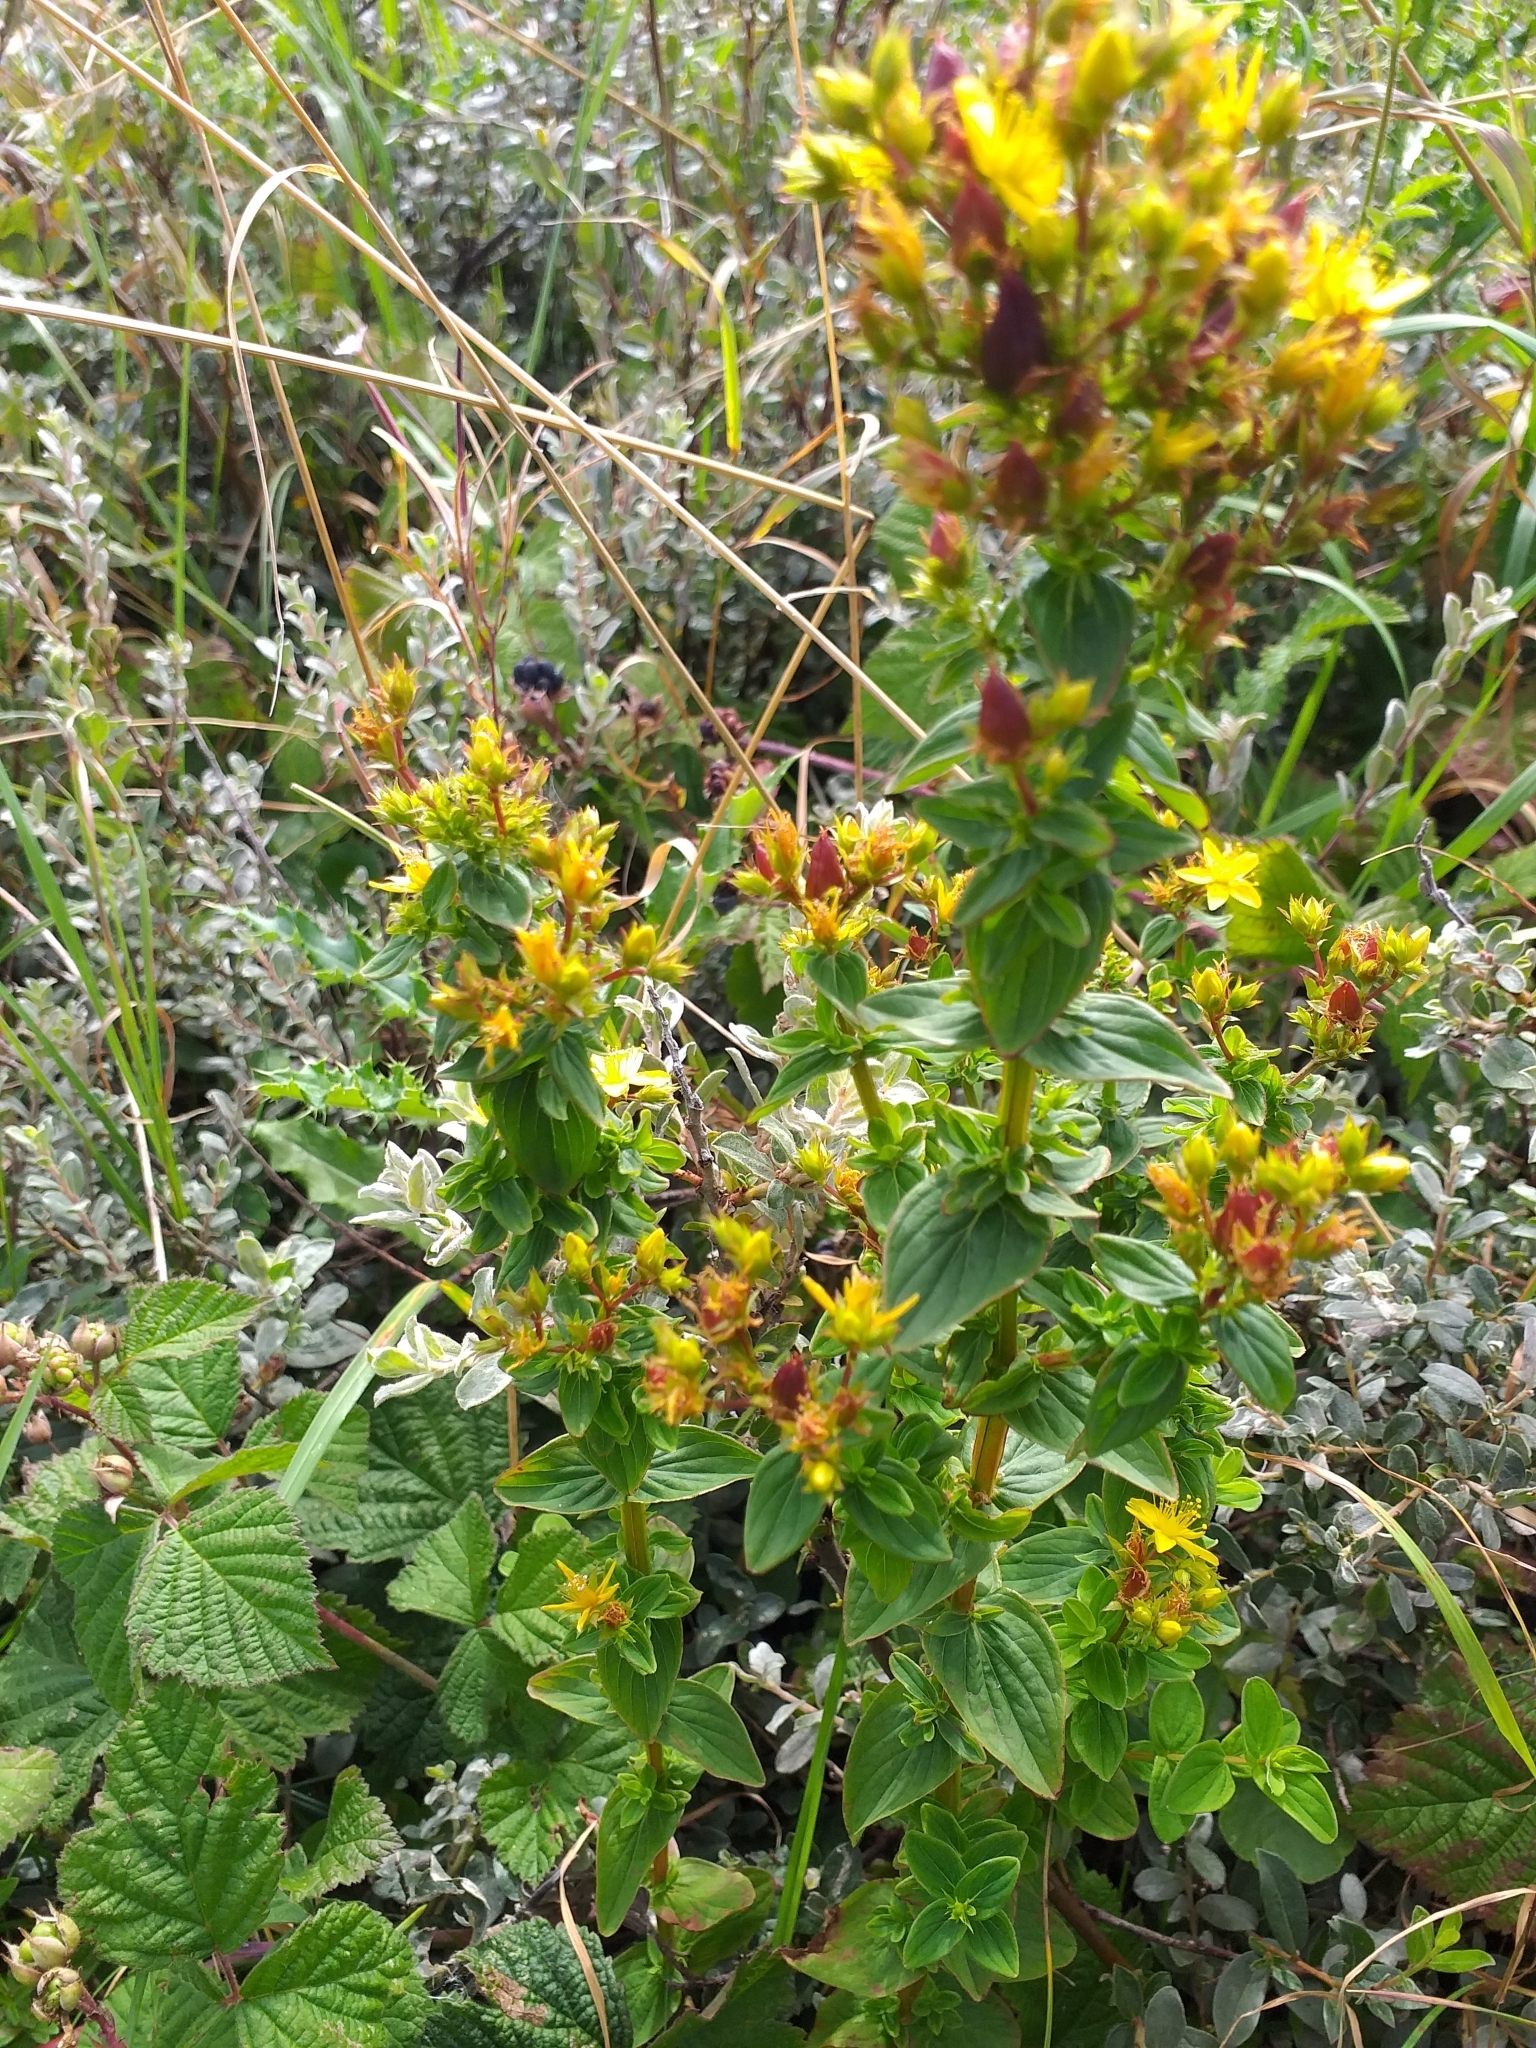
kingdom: Plantae
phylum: Tracheophyta
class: Magnoliopsida
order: Malpighiales
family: Hypericaceae
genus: Hypericum
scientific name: Hypericum tetrapterum
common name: Square-stalked st. john's-wort
